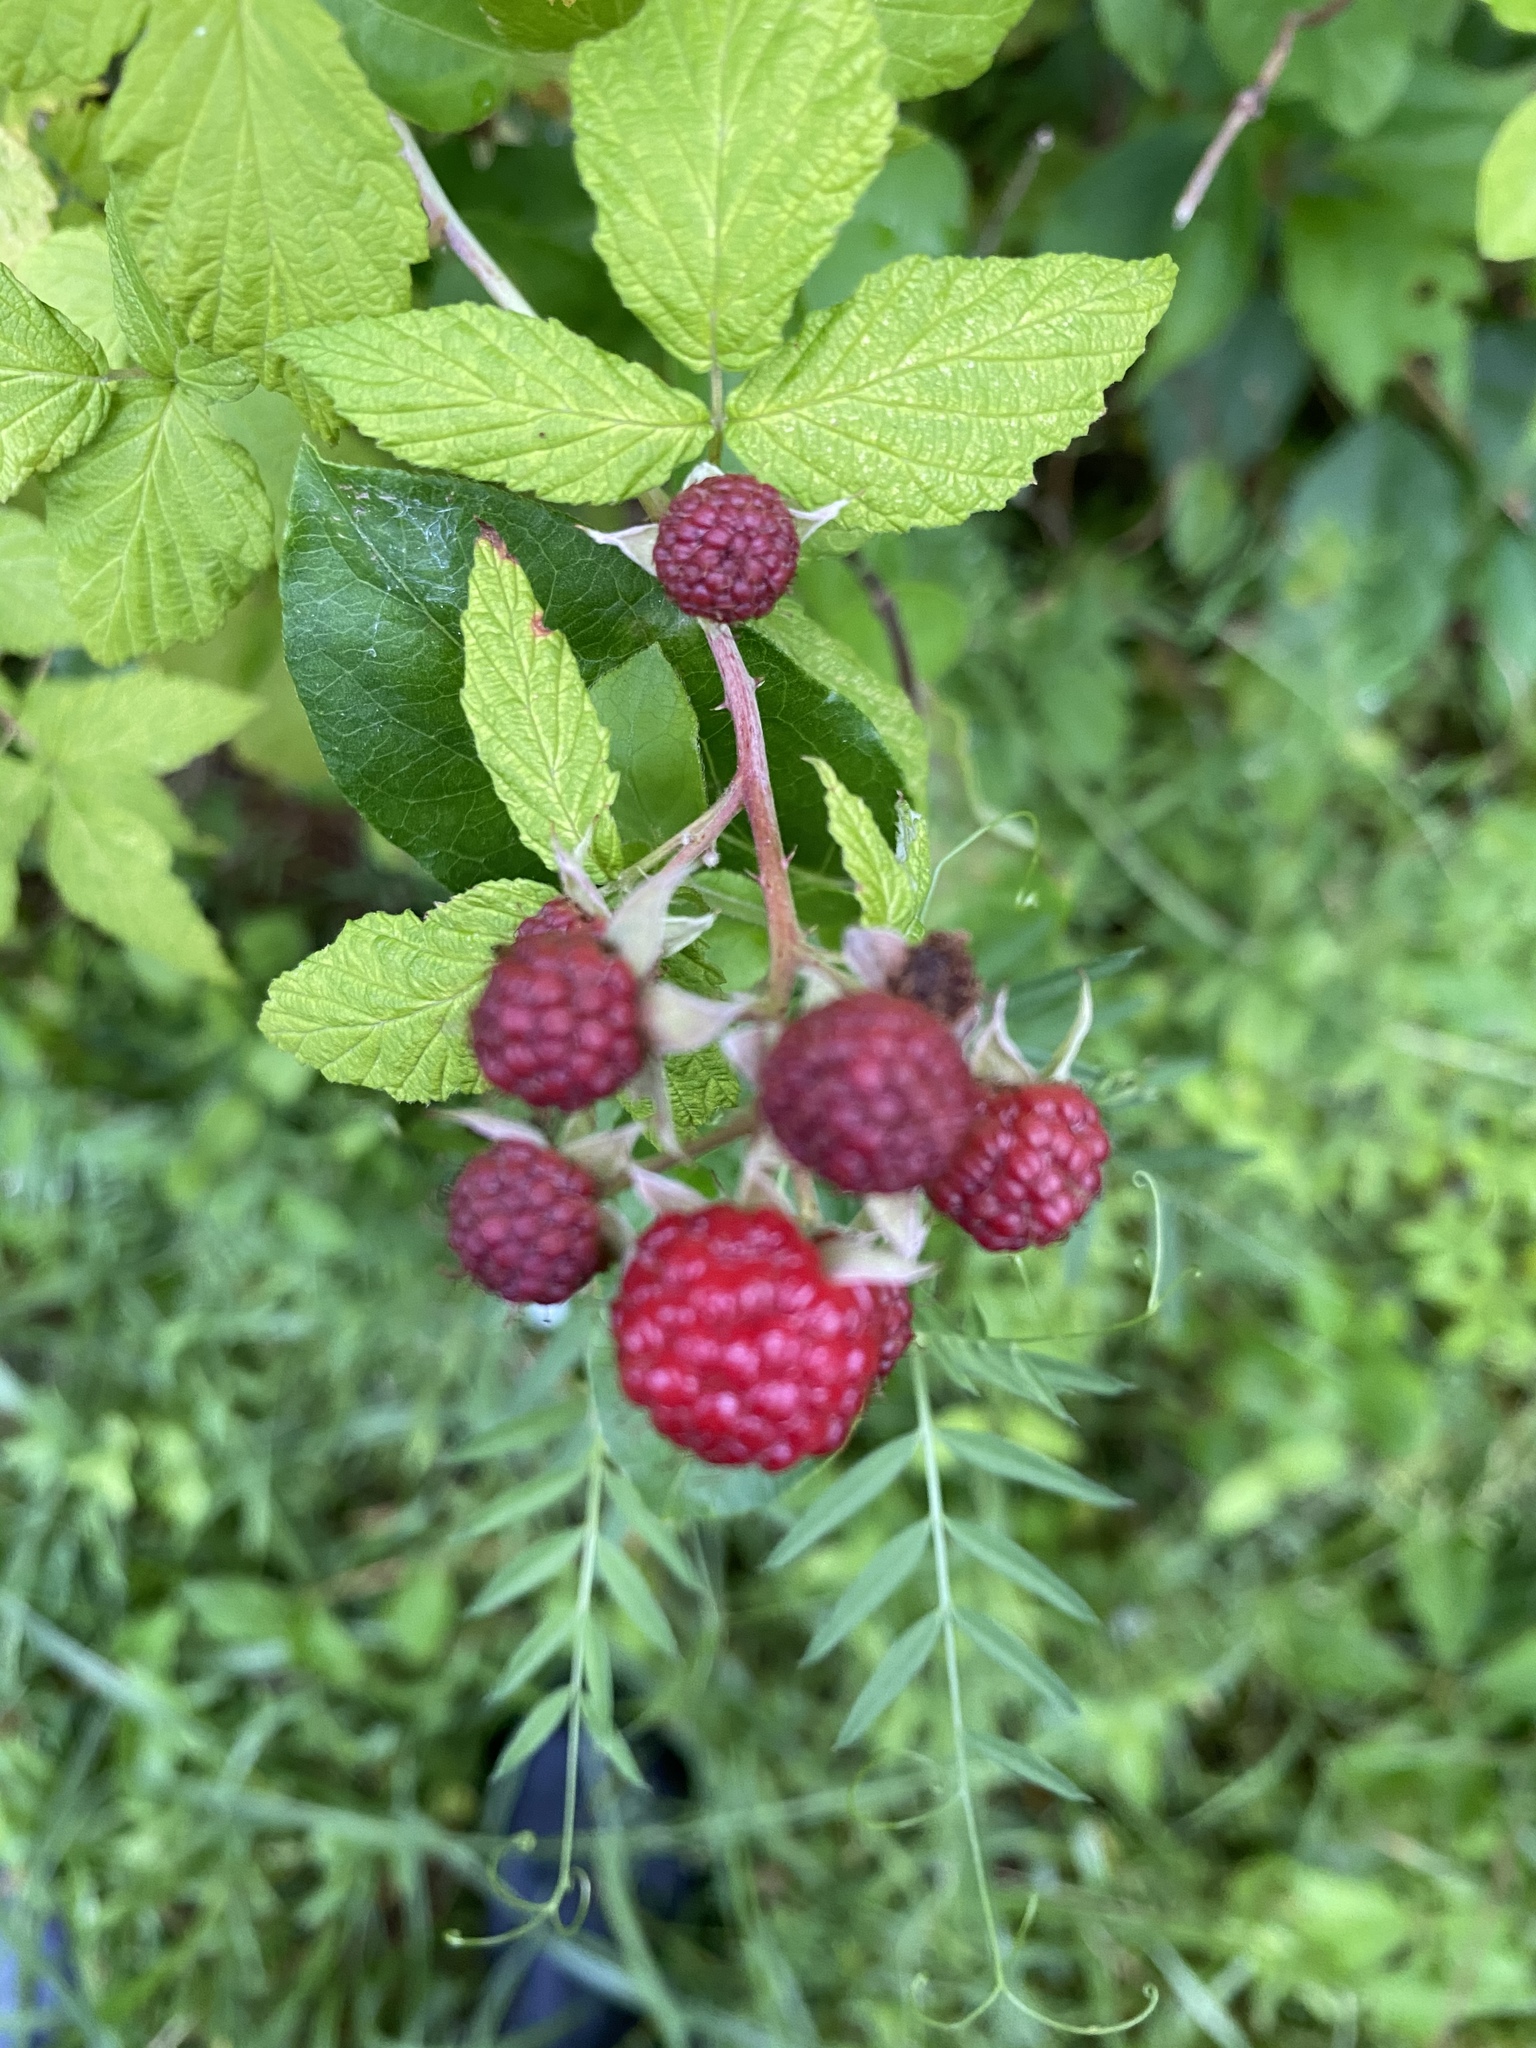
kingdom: Plantae
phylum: Tracheophyta
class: Magnoliopsida
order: Rosales
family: Rosaceae
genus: Rubus
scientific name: Rubus occidentalis
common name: Black raspberry
